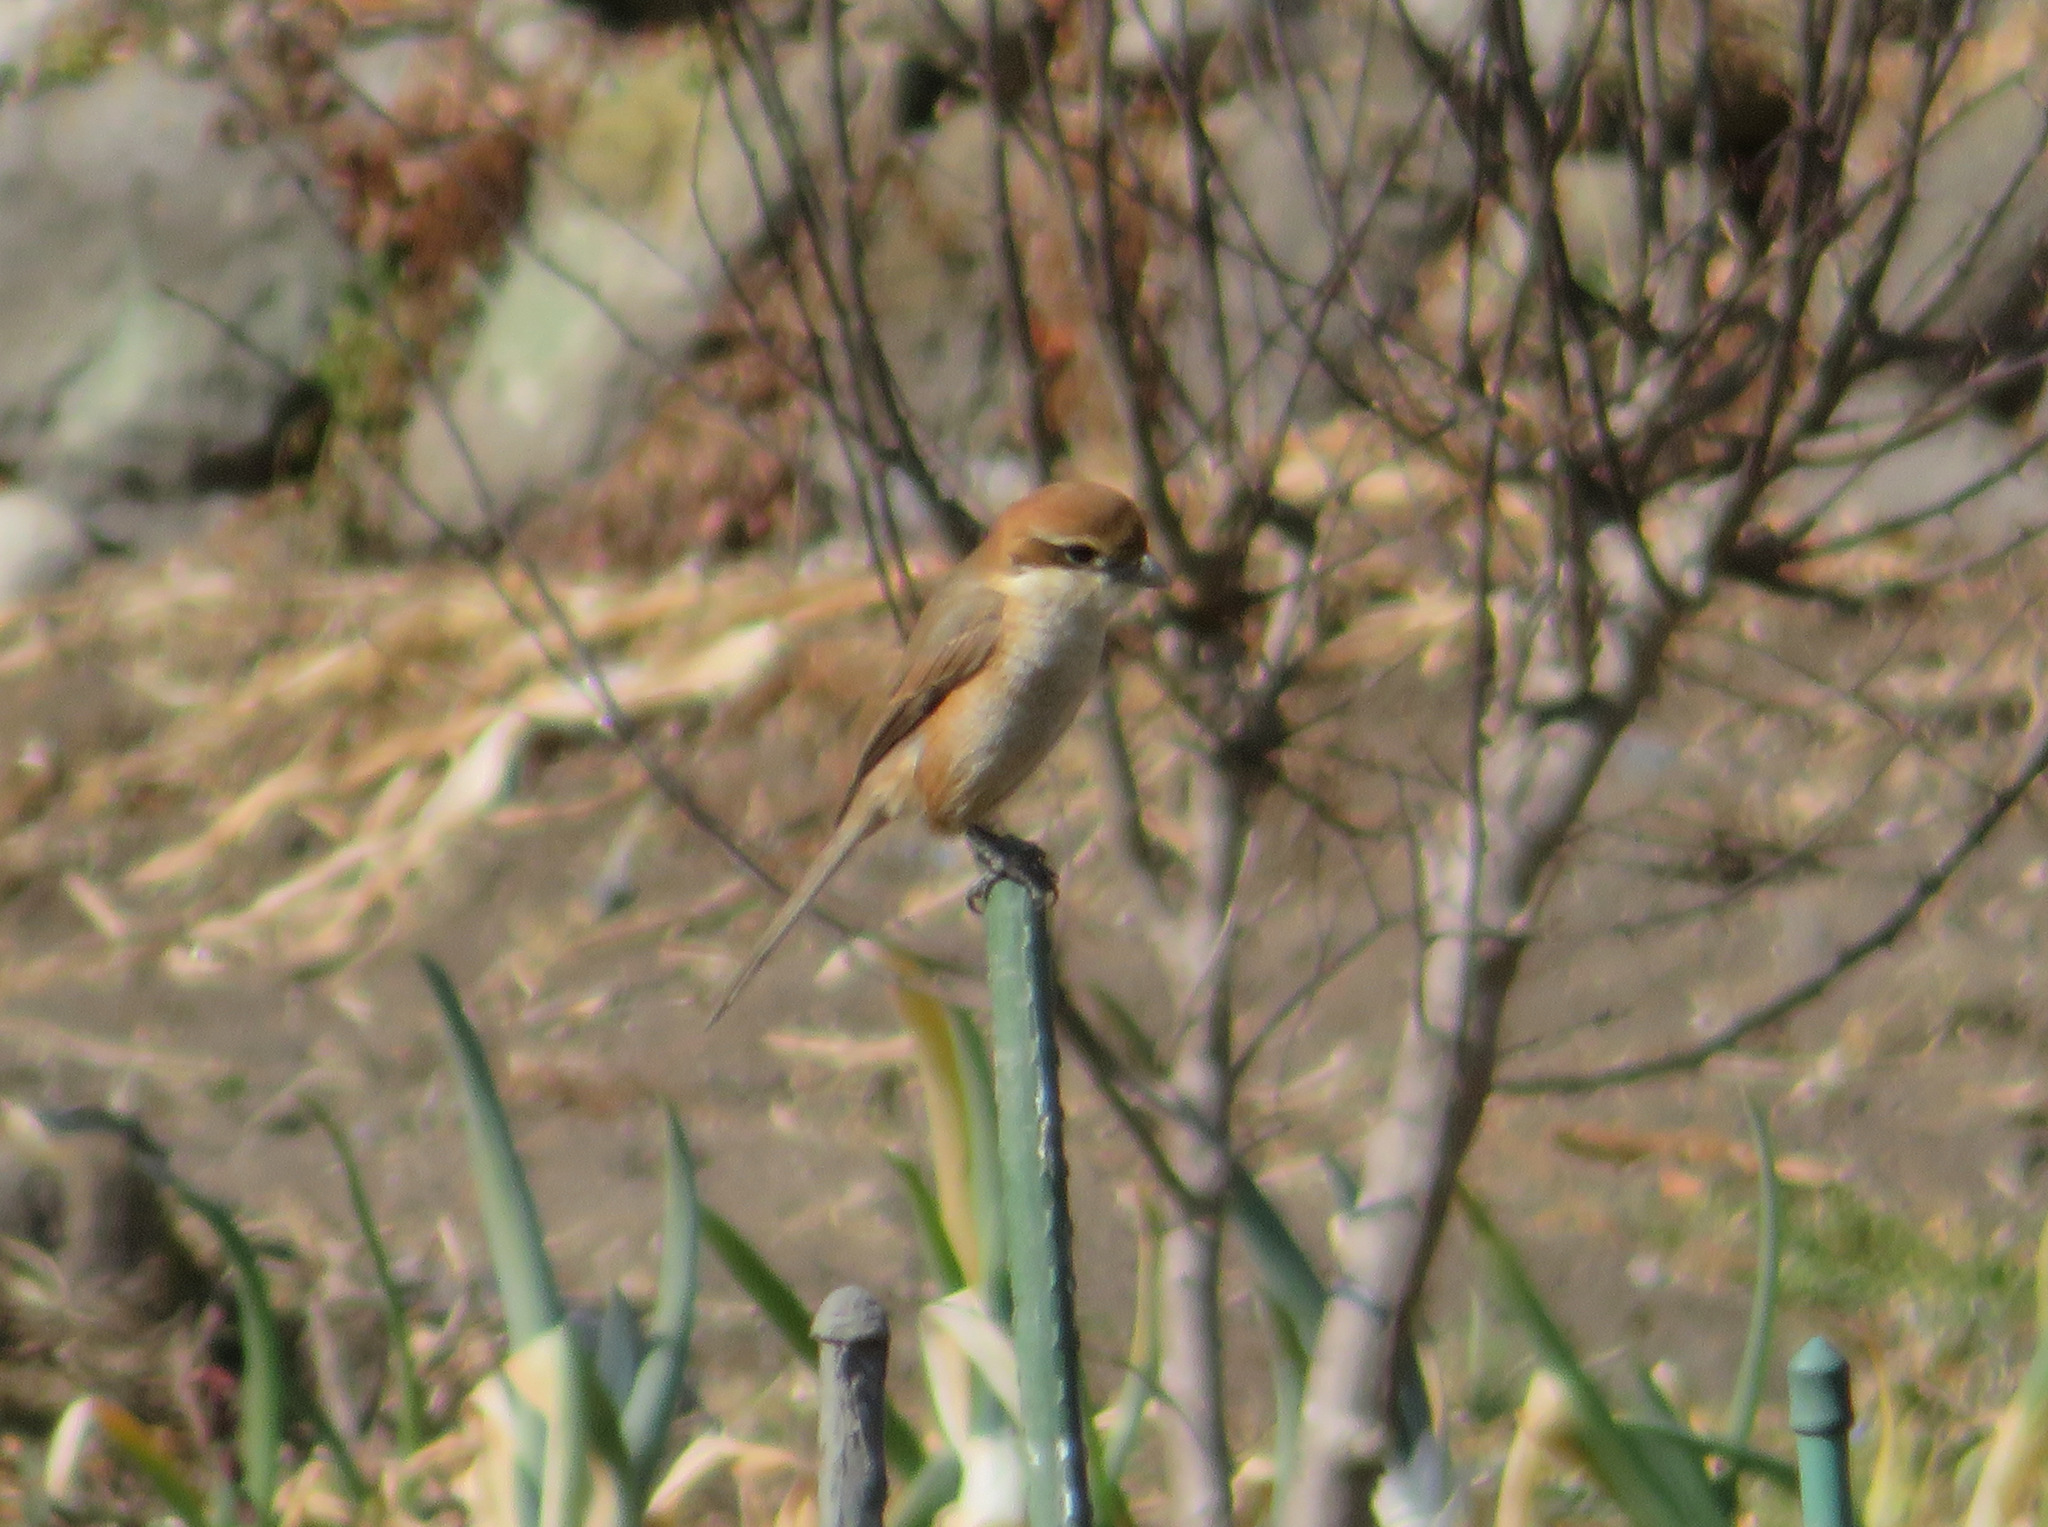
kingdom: Animalia
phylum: Chordata
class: Aves
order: Passeriformes
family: Laniidae
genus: Lanius
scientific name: Lanius bucephalus
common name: Bull-headed shrike
